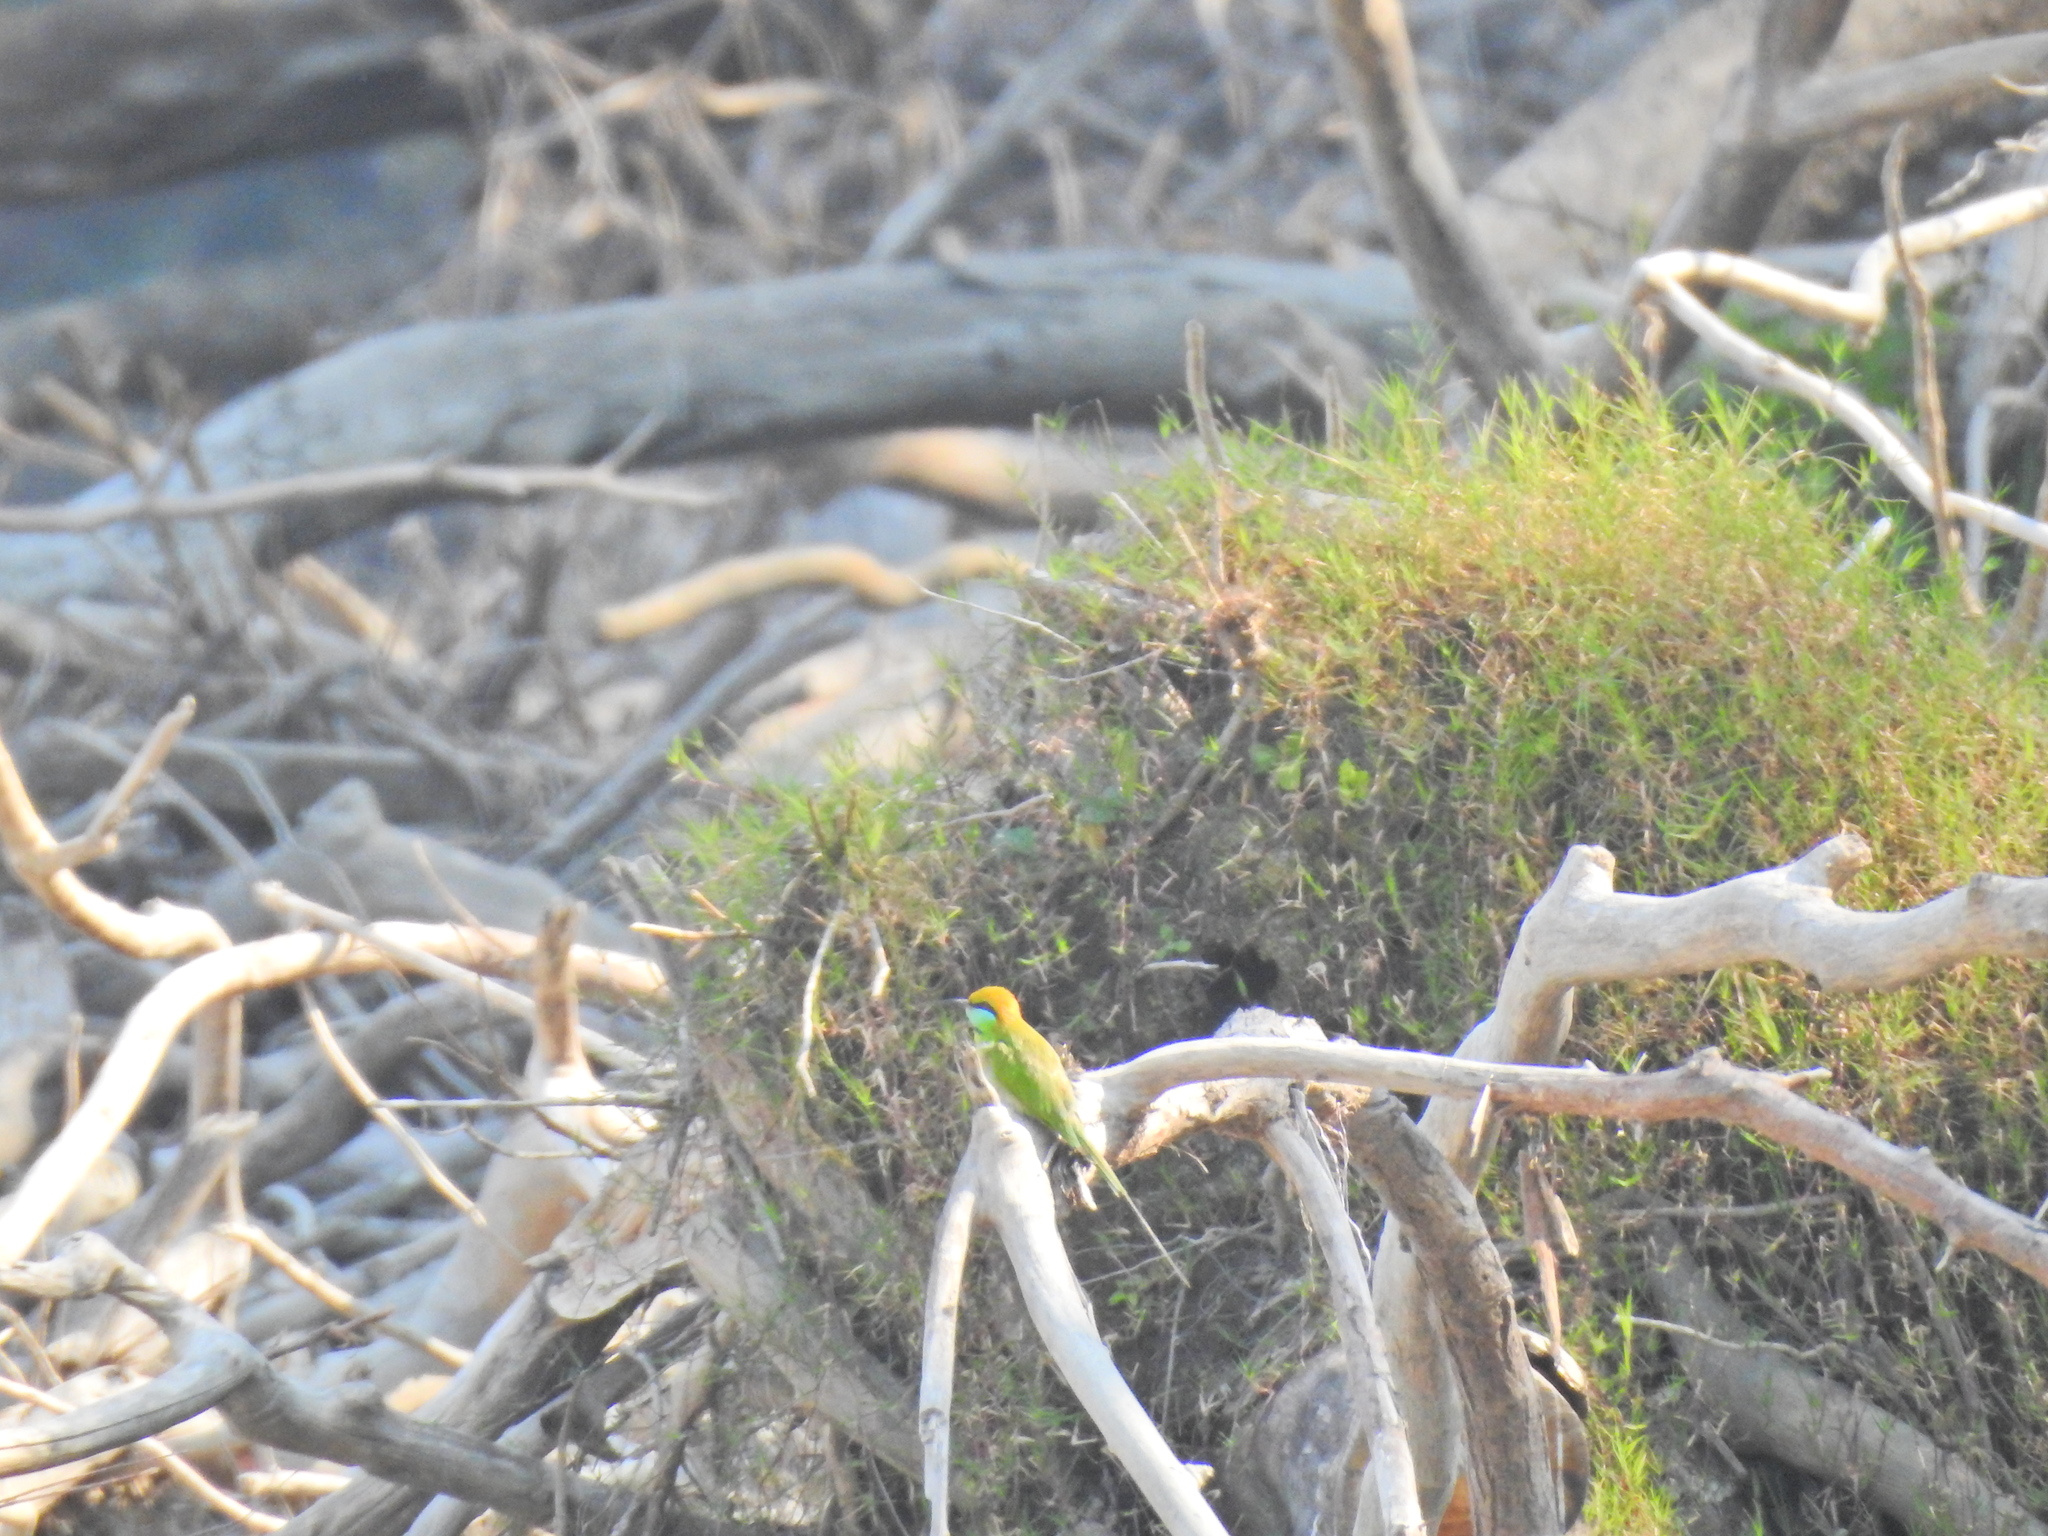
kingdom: Animalia
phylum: Chordata
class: Aves
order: Coraciiformes
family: Meropidae
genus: Merops
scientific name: Merops orientalis
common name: Green bee-eater
